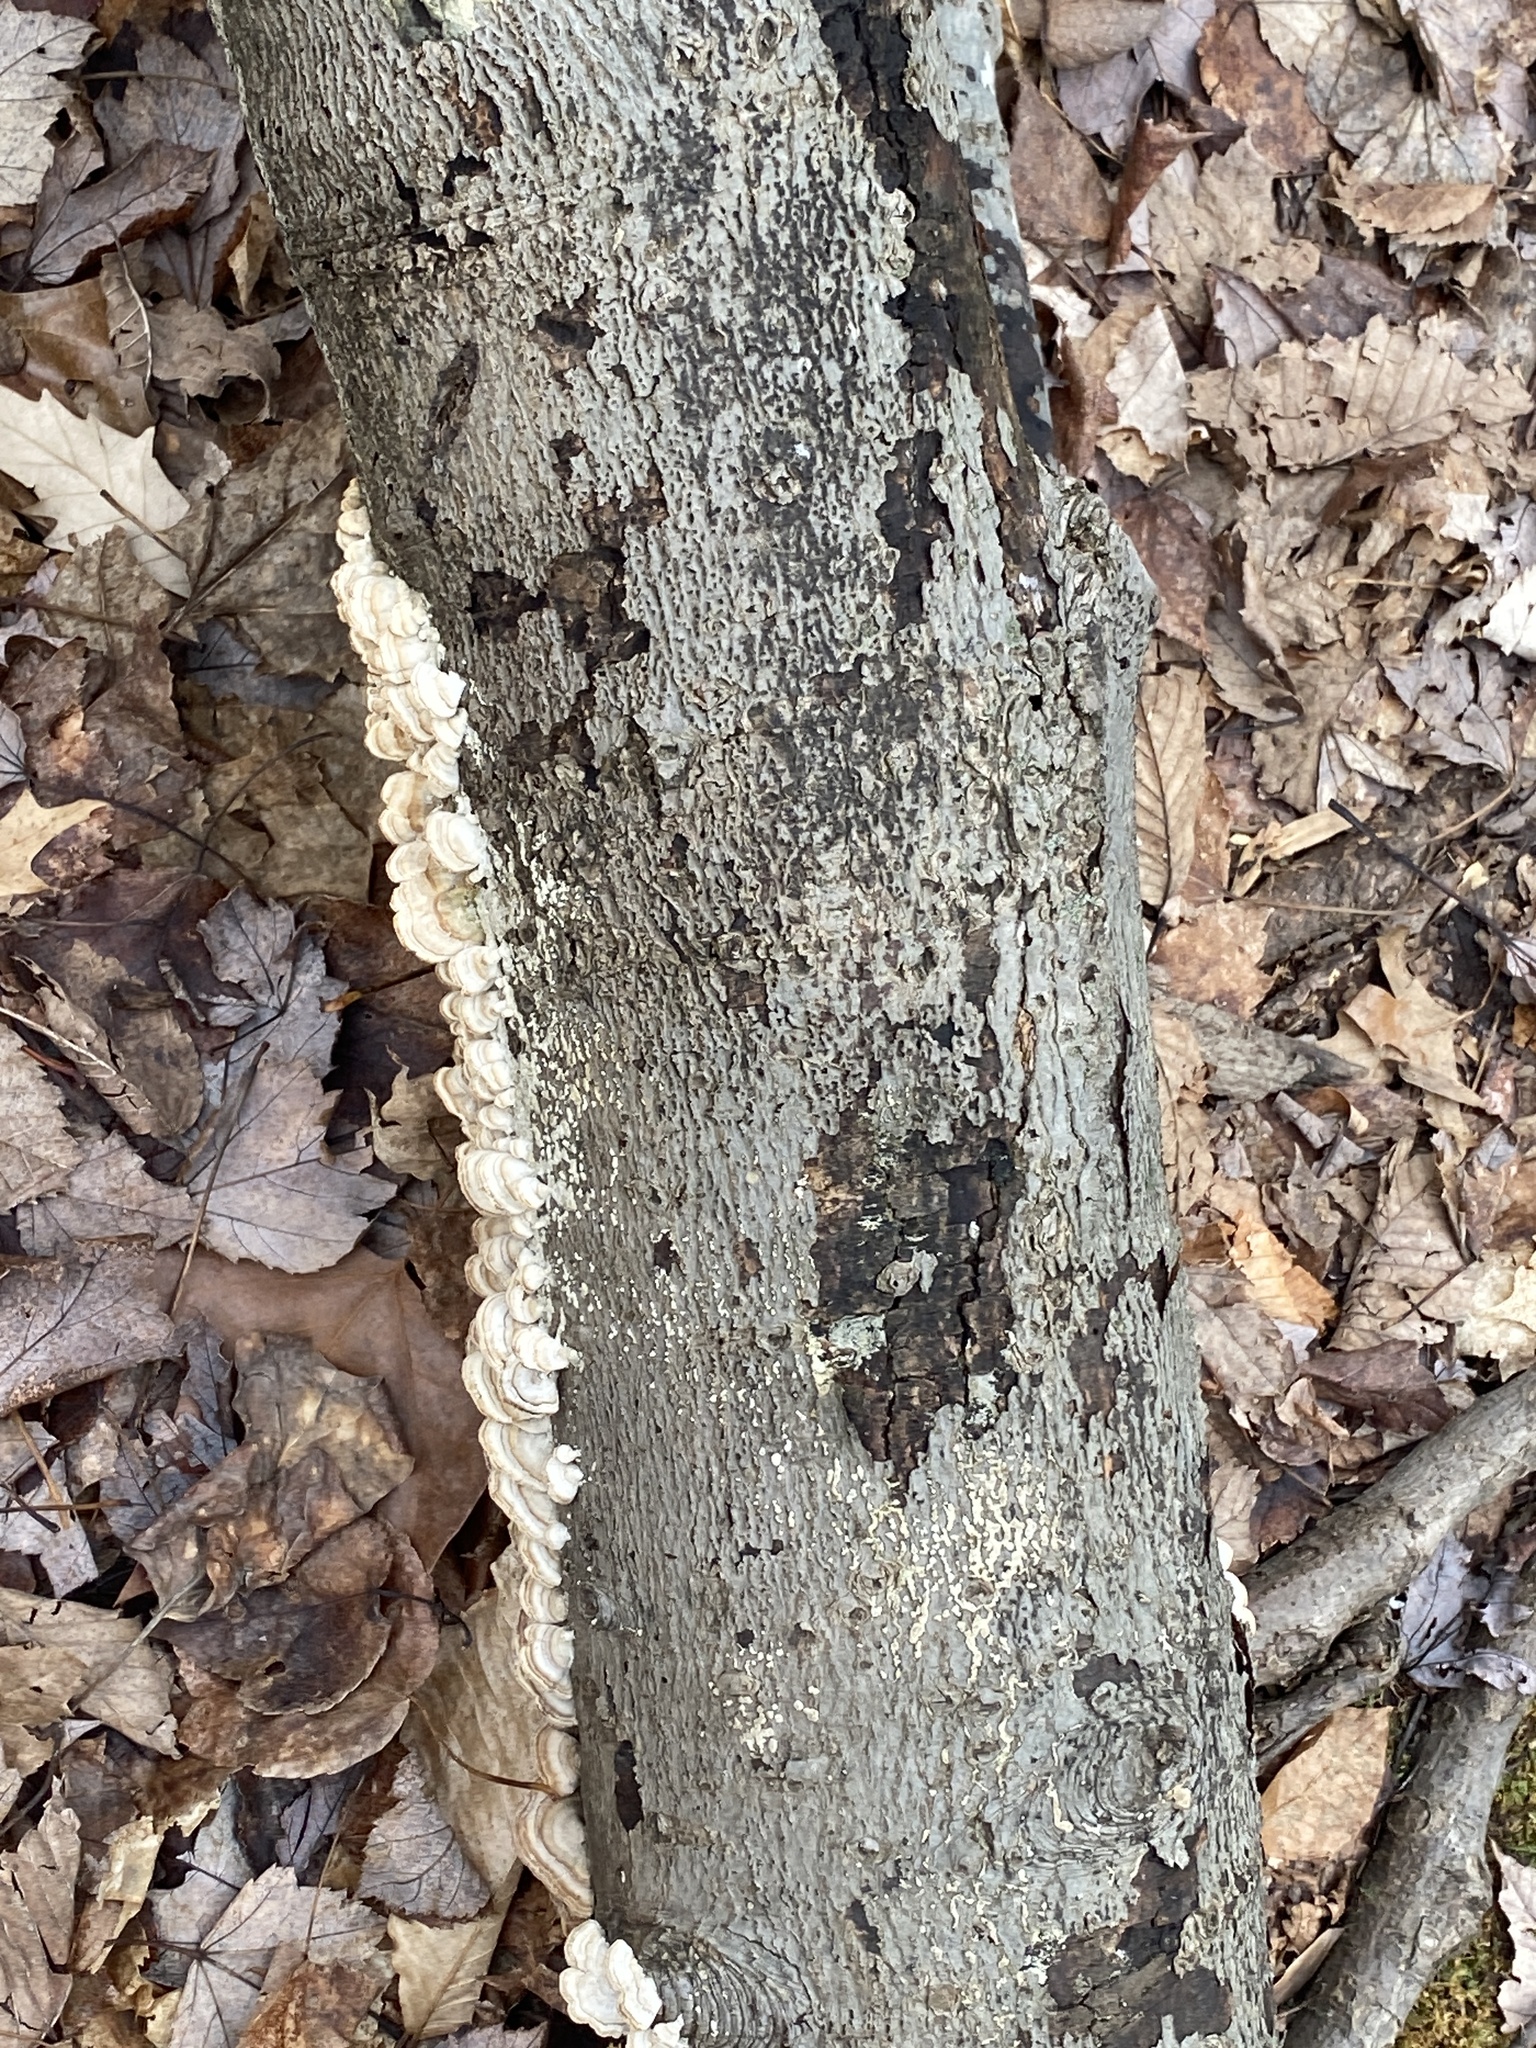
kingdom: Fungi
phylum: Basidiomycota
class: Agaricomycetes
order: Hymenochaetales
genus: Trichaptum
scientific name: Trichaptum biforme
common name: Violet-toothed polypore
